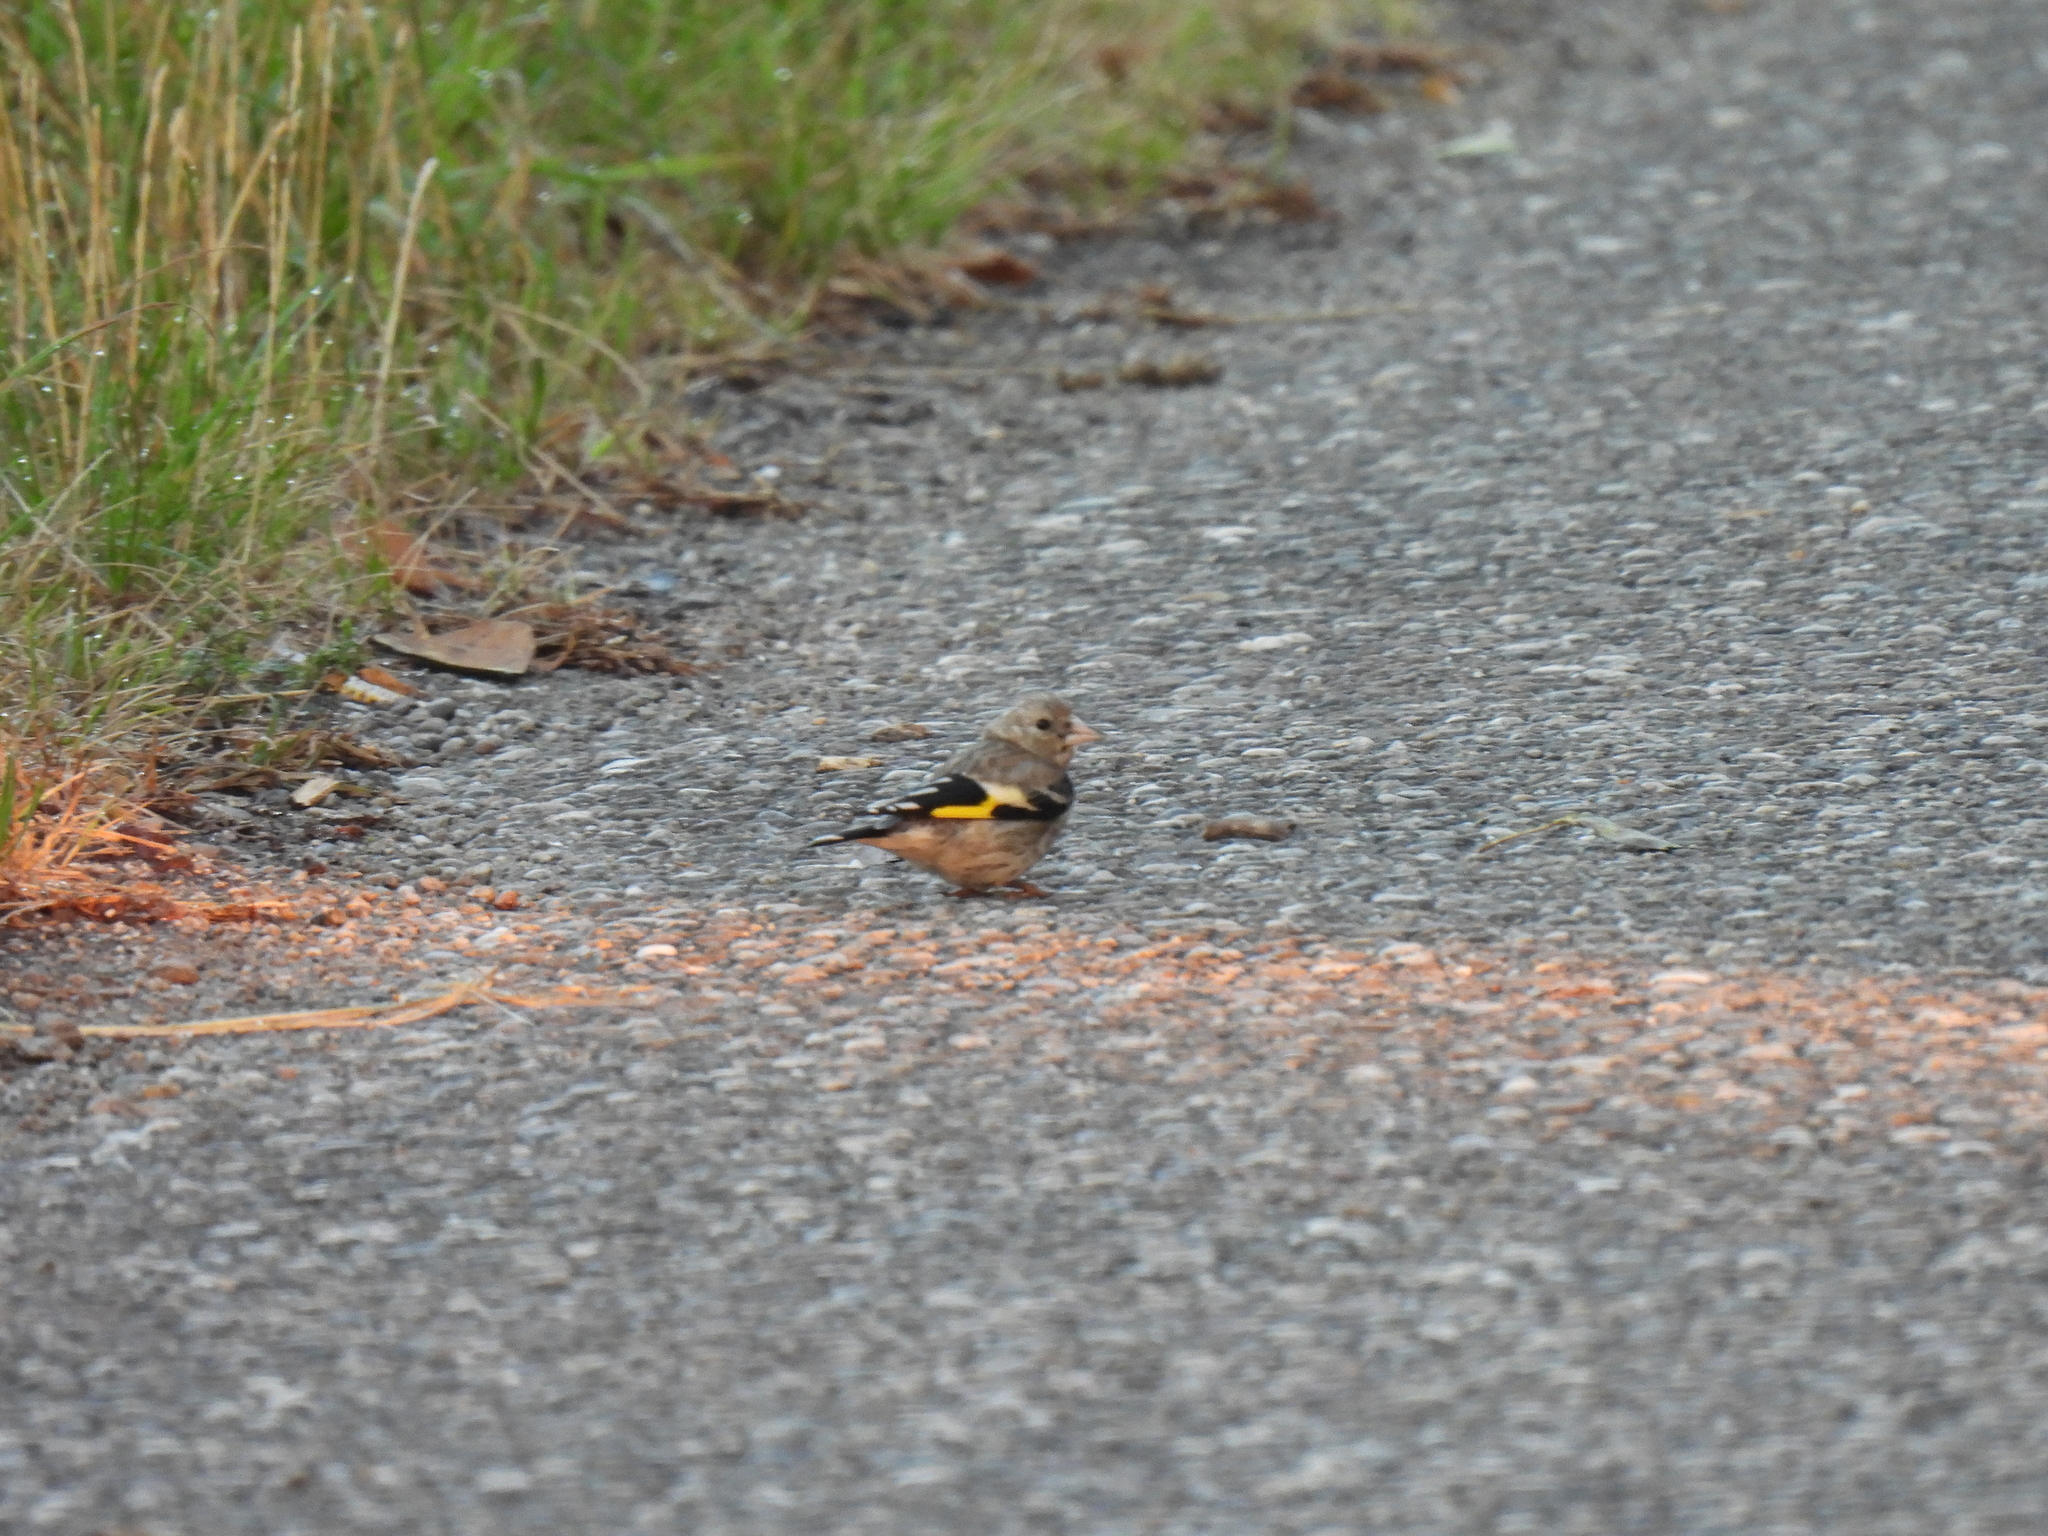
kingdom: Animalia
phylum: Chordata
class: Aves
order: Passeriformes
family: Fringillidae
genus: Carduelis
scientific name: Carduelis carduelis
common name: European goldfinch
